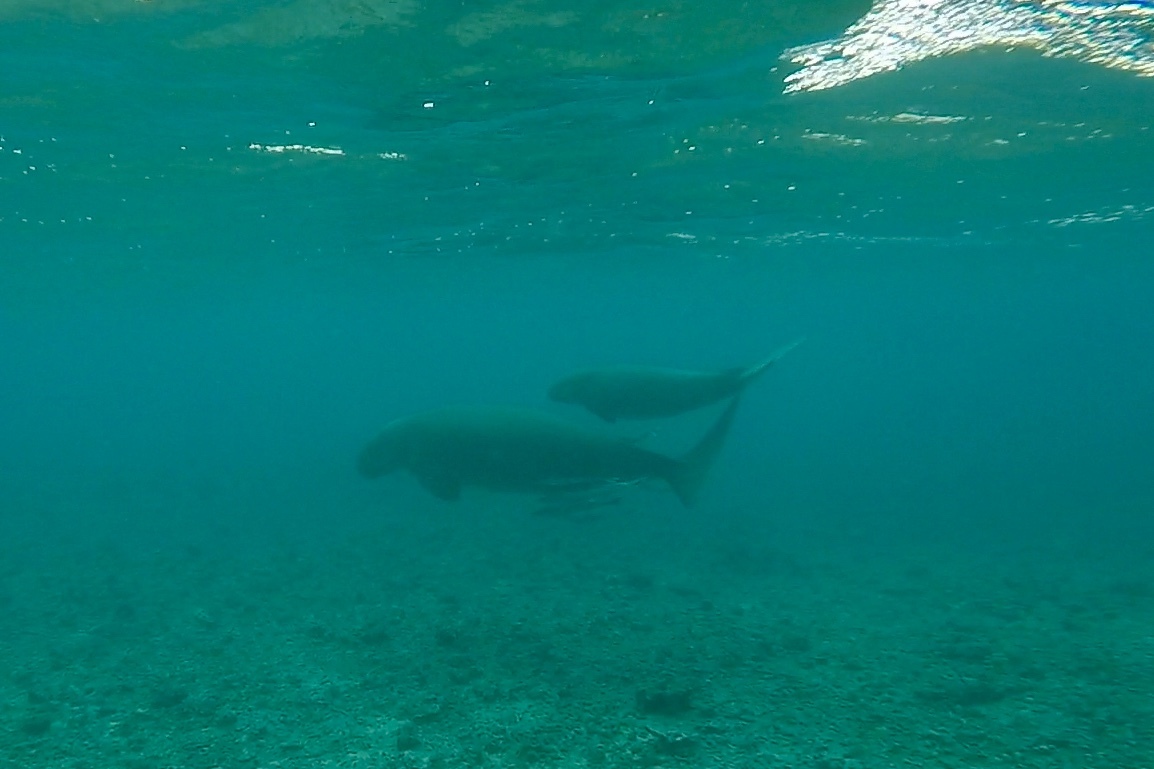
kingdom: Animalia
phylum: Chordata
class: Mammalia
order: Sirenia
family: Dugongidae
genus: Dugong
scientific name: Dugong dugon
